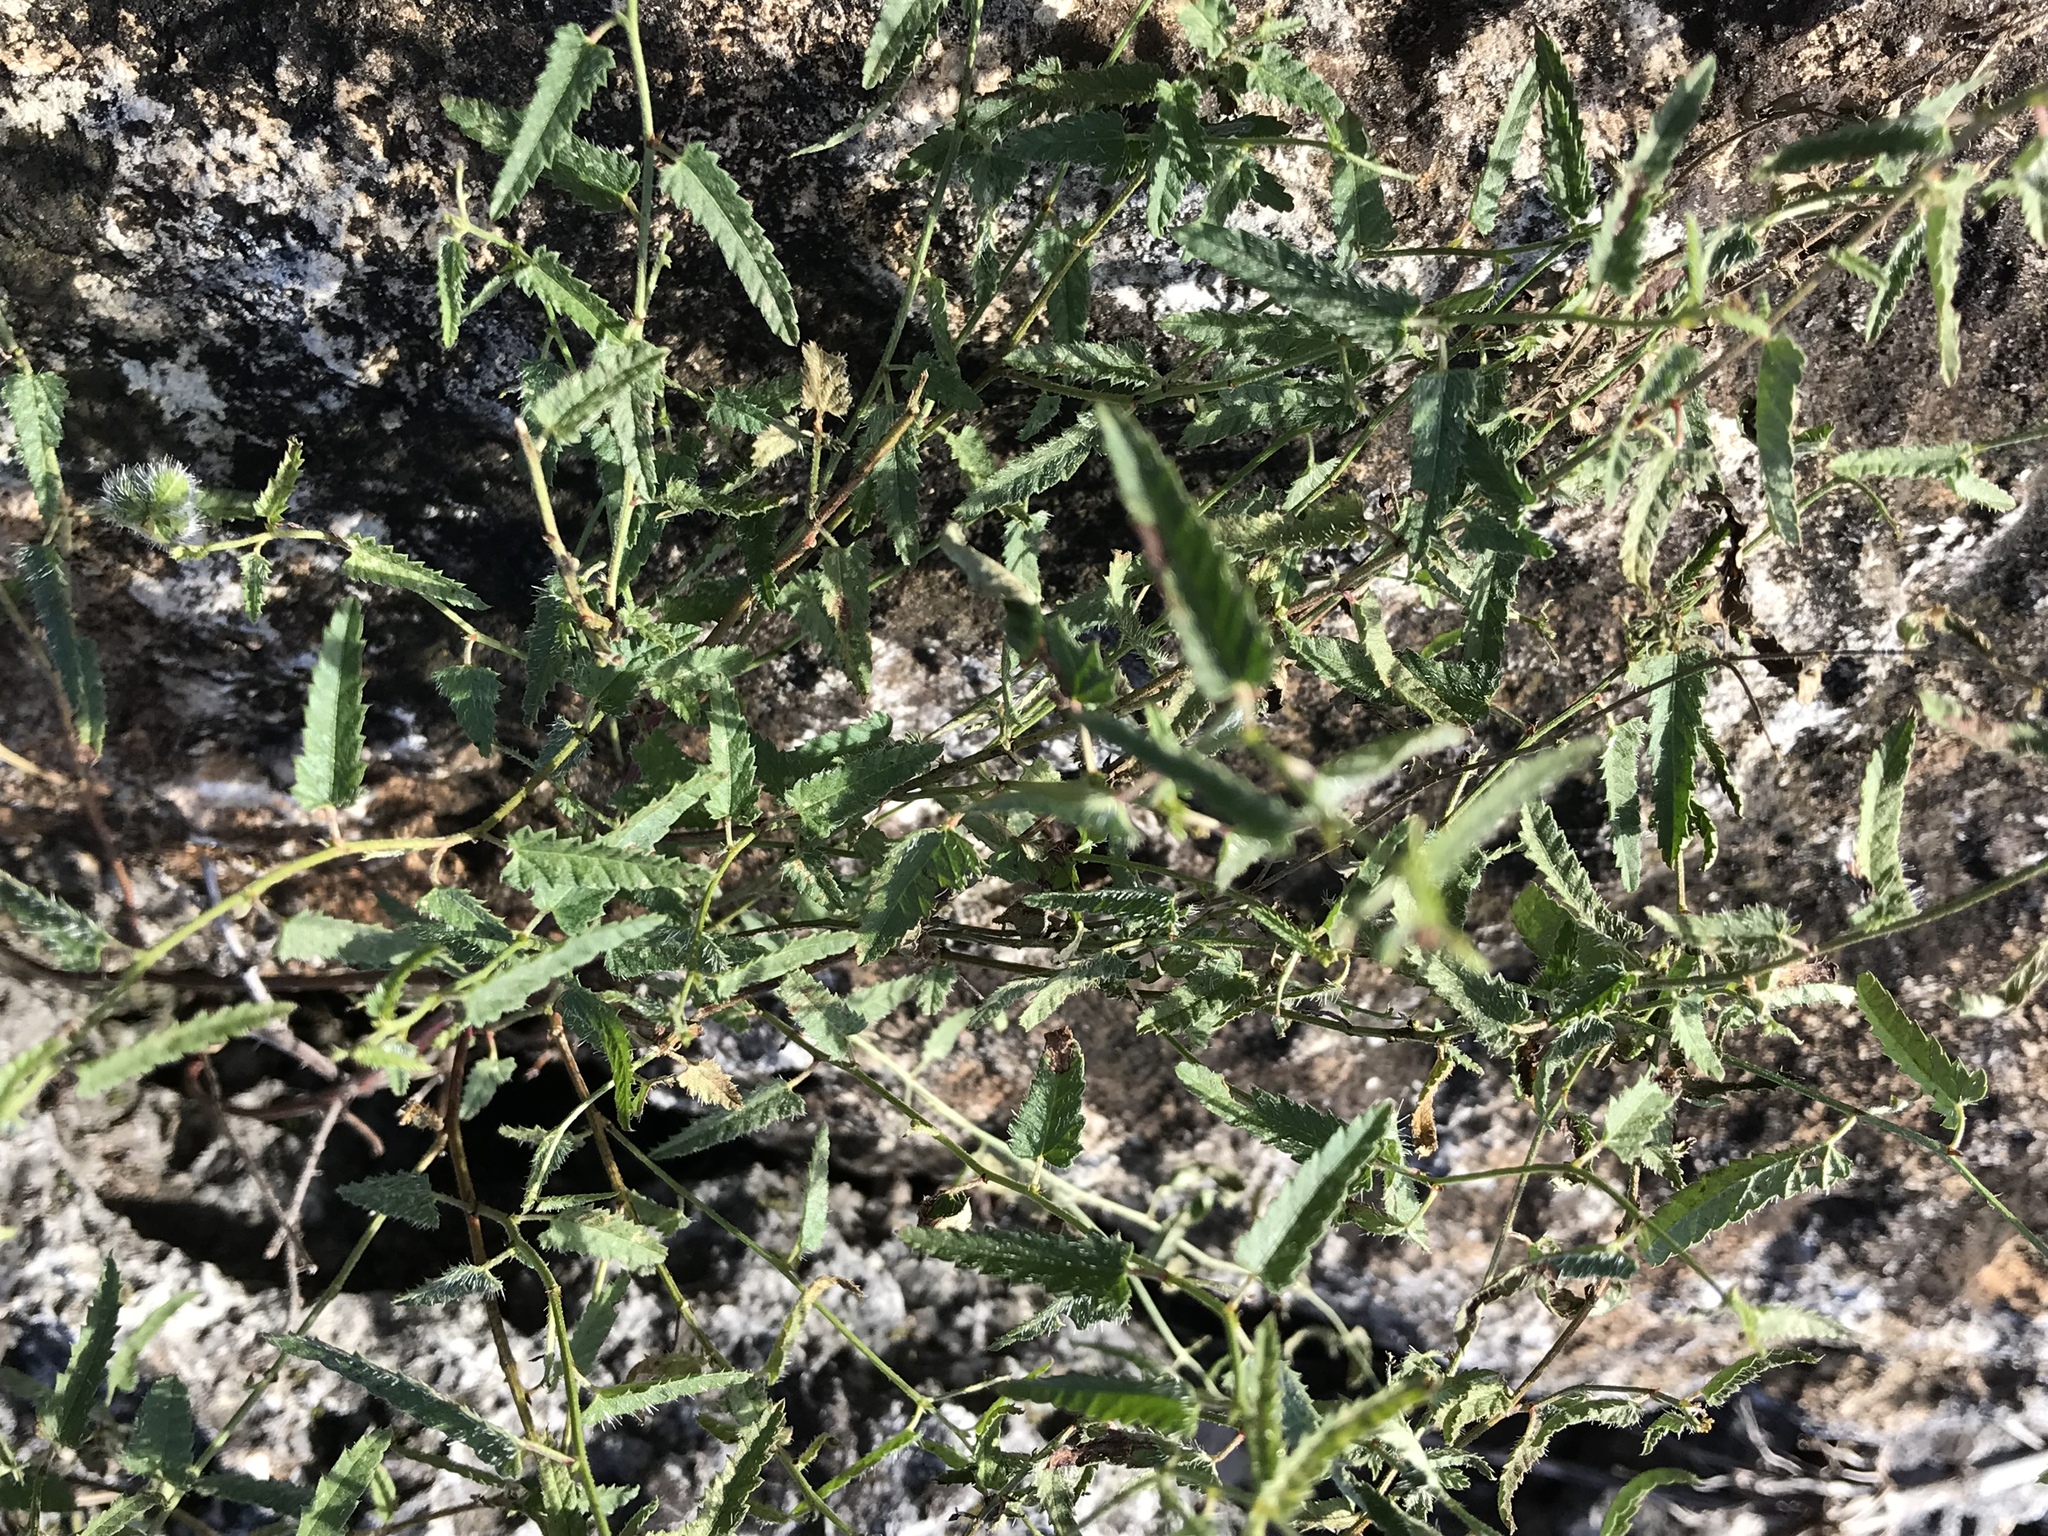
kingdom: Plantae
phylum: Tracheophyta
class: Magnoliopsida
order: Malpighiales
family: Euphorbiaceae
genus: Tragia
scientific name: Tragia ramosa
